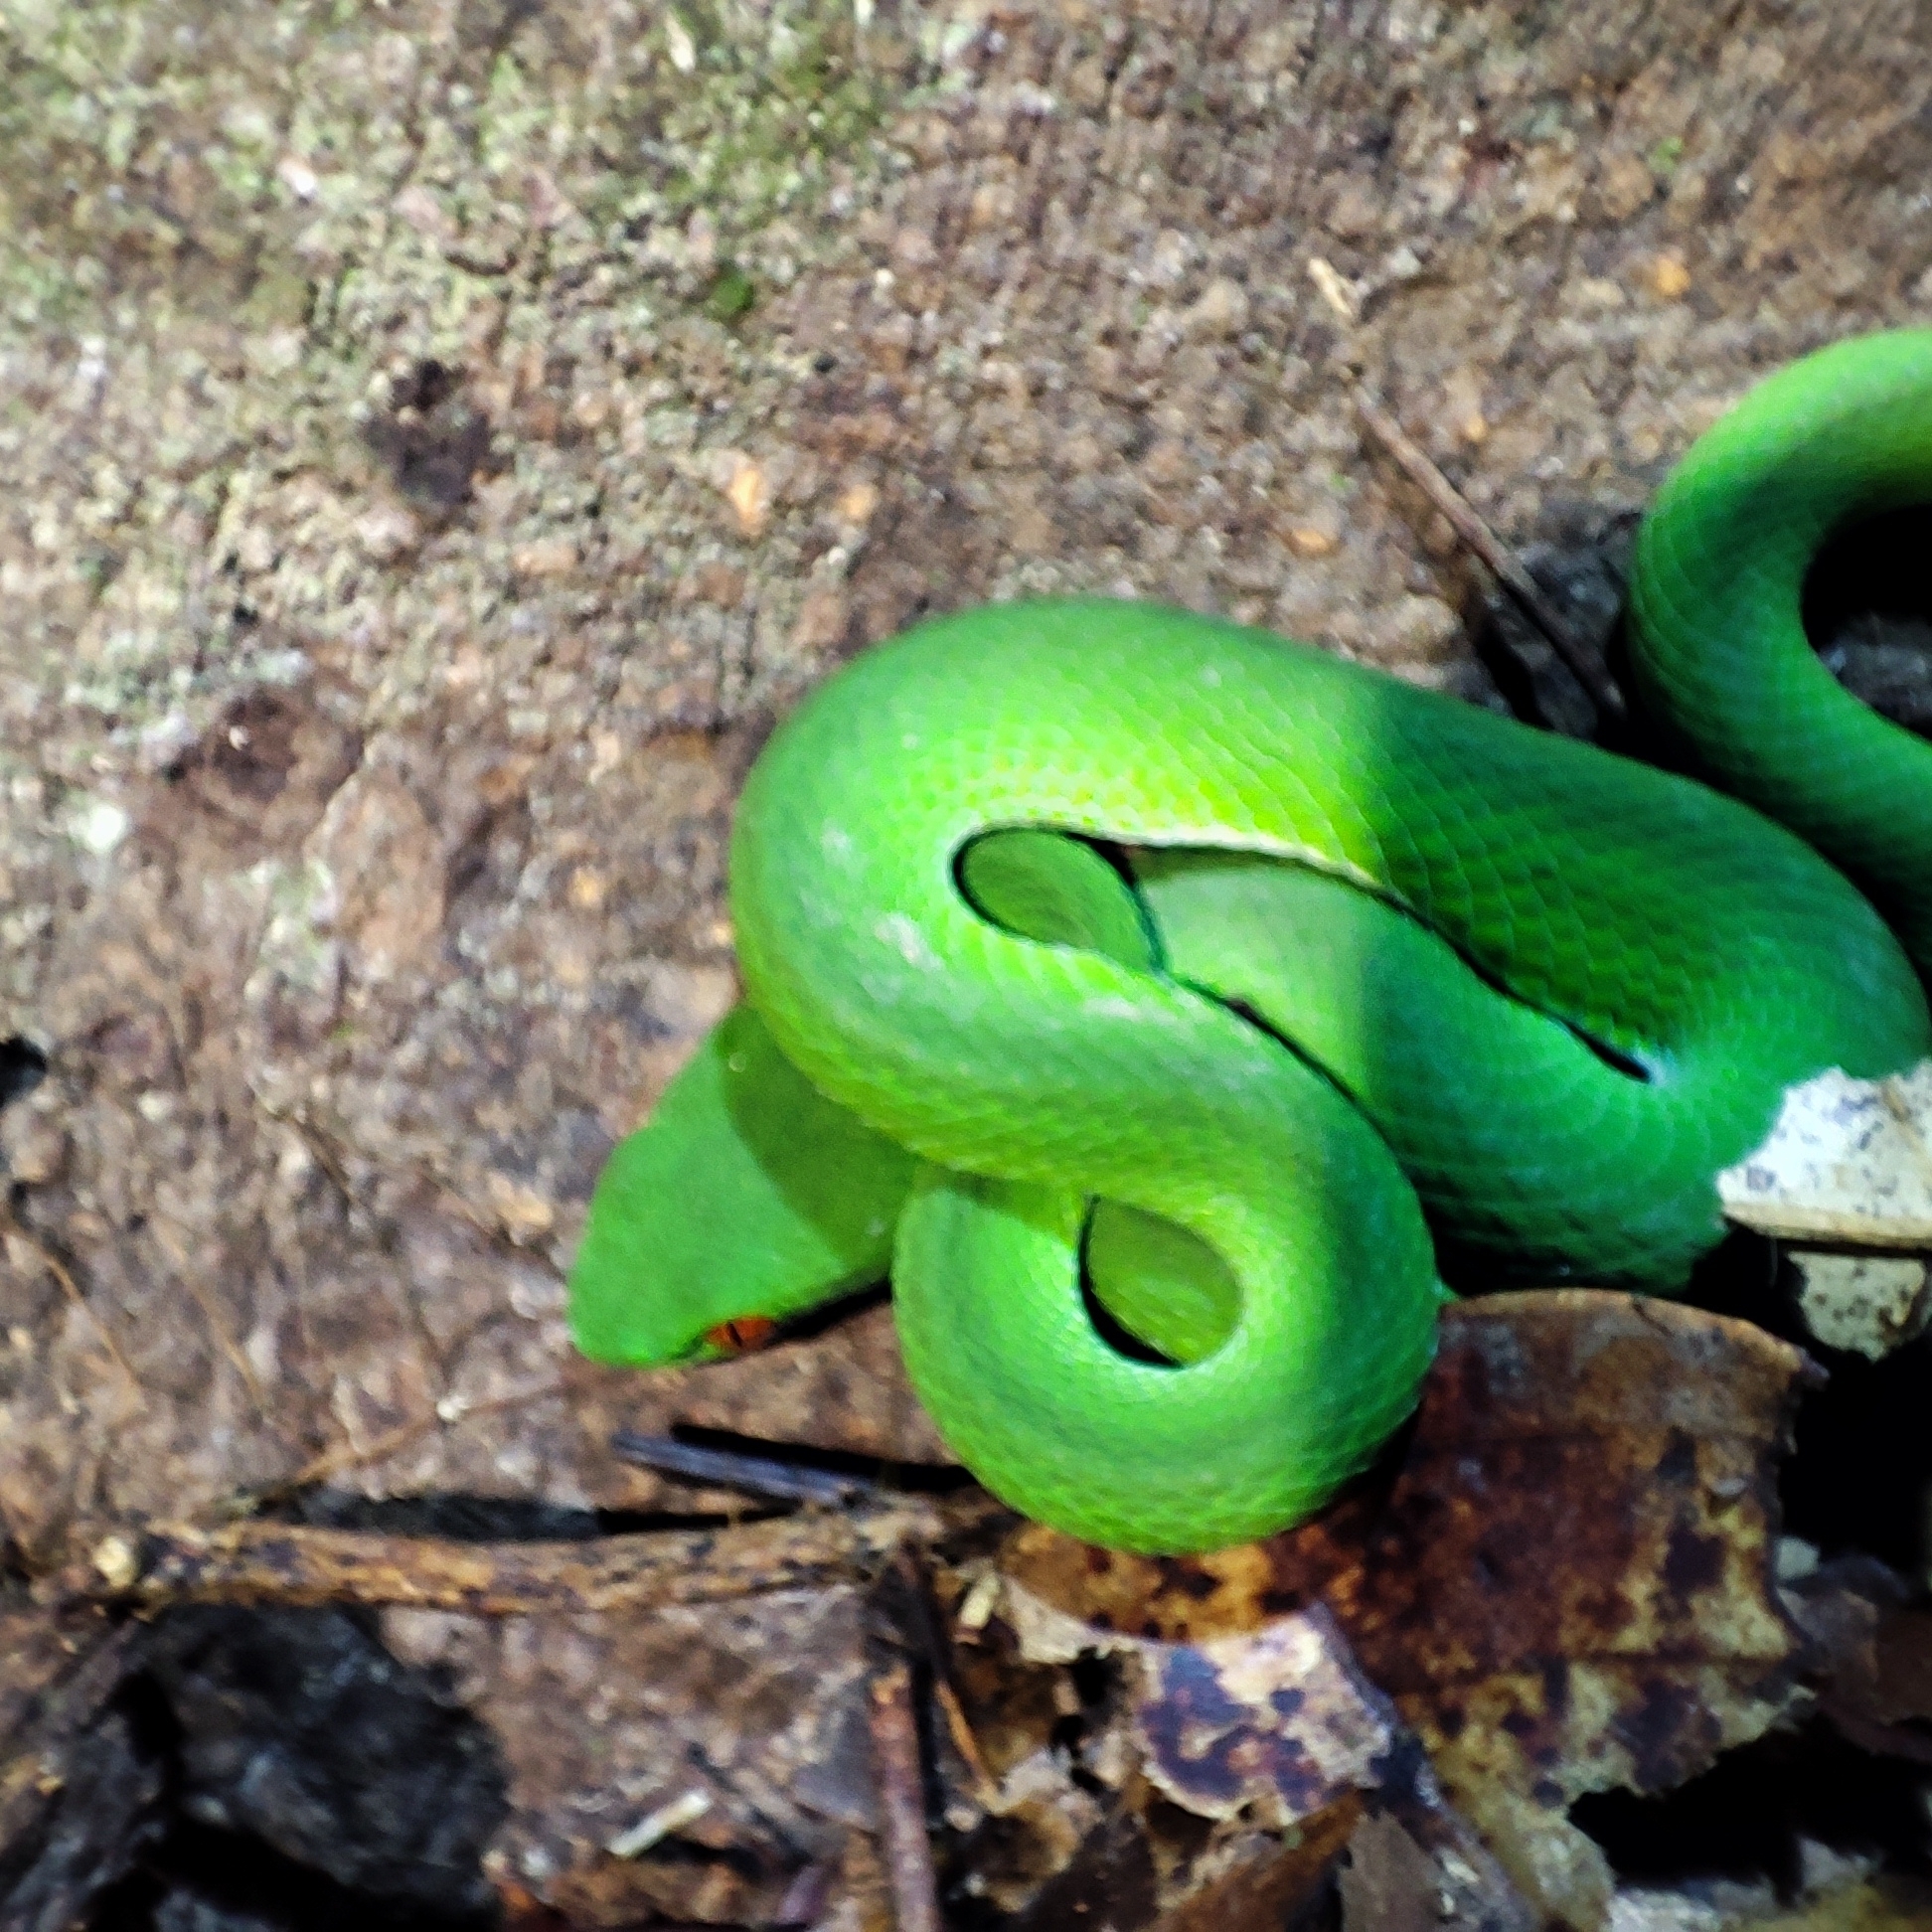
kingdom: Animalia
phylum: Chordata
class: Squamata
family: Viperidae
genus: Craspedocephalus
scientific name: Craspedocephalus rubeus
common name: Ruby-eyed green pitviper
